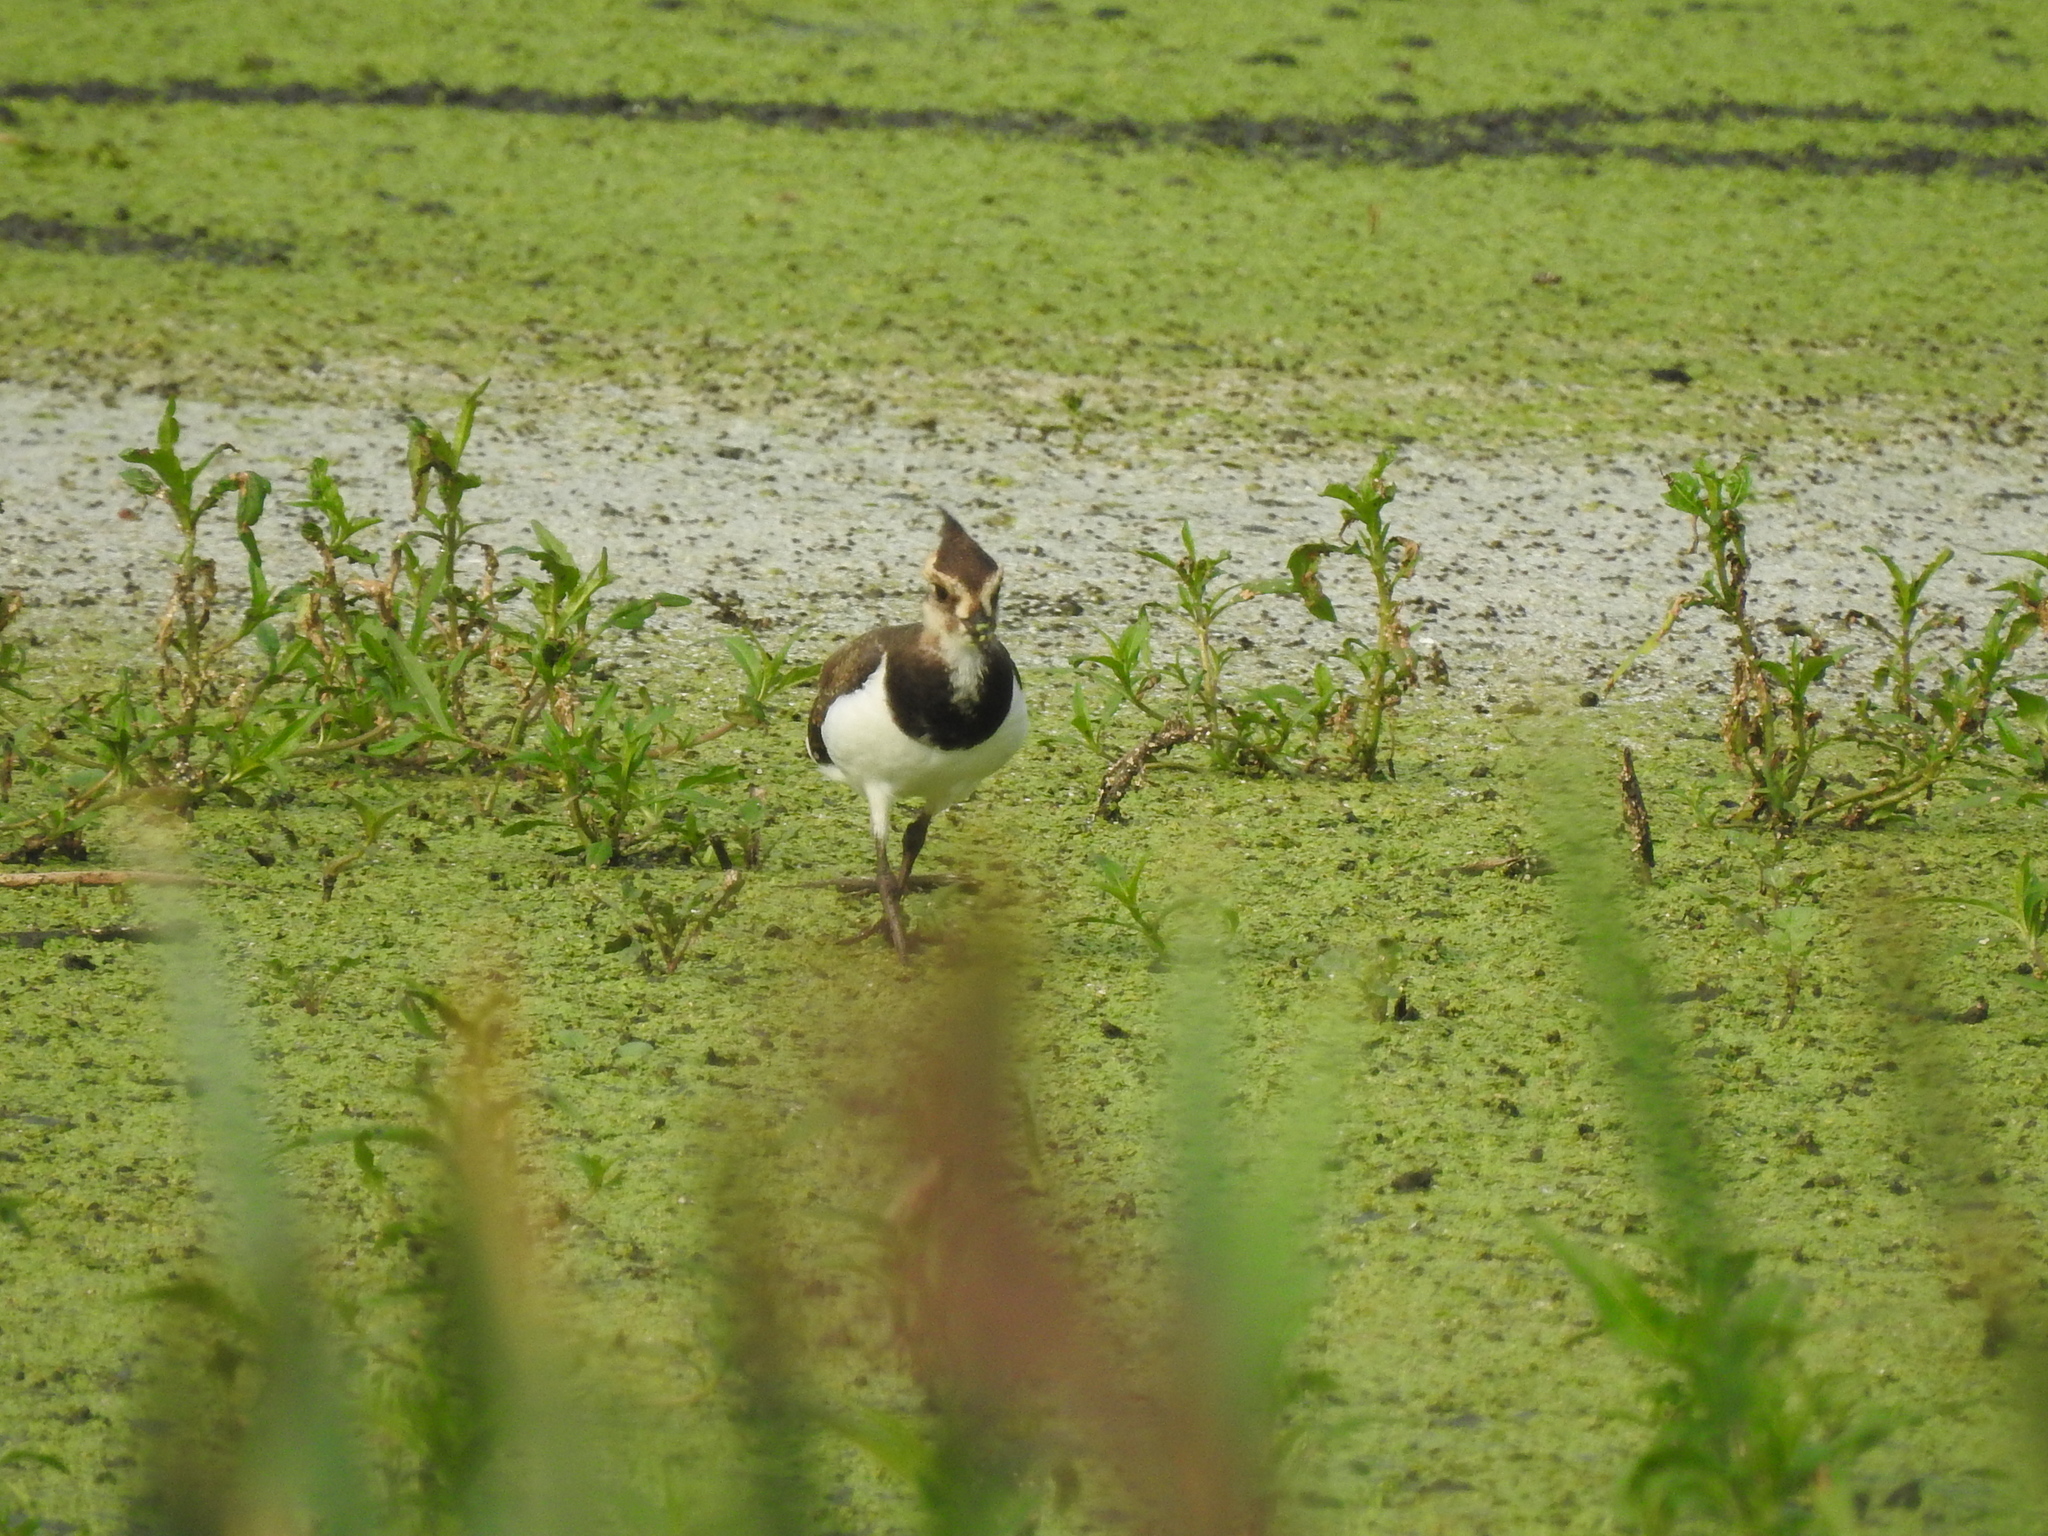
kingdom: Animalia
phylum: Chordata
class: Aves
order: Passeriformes
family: Emberizidae
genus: Emberiza
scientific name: Emberiza schoeniclus
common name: Reed bunting
